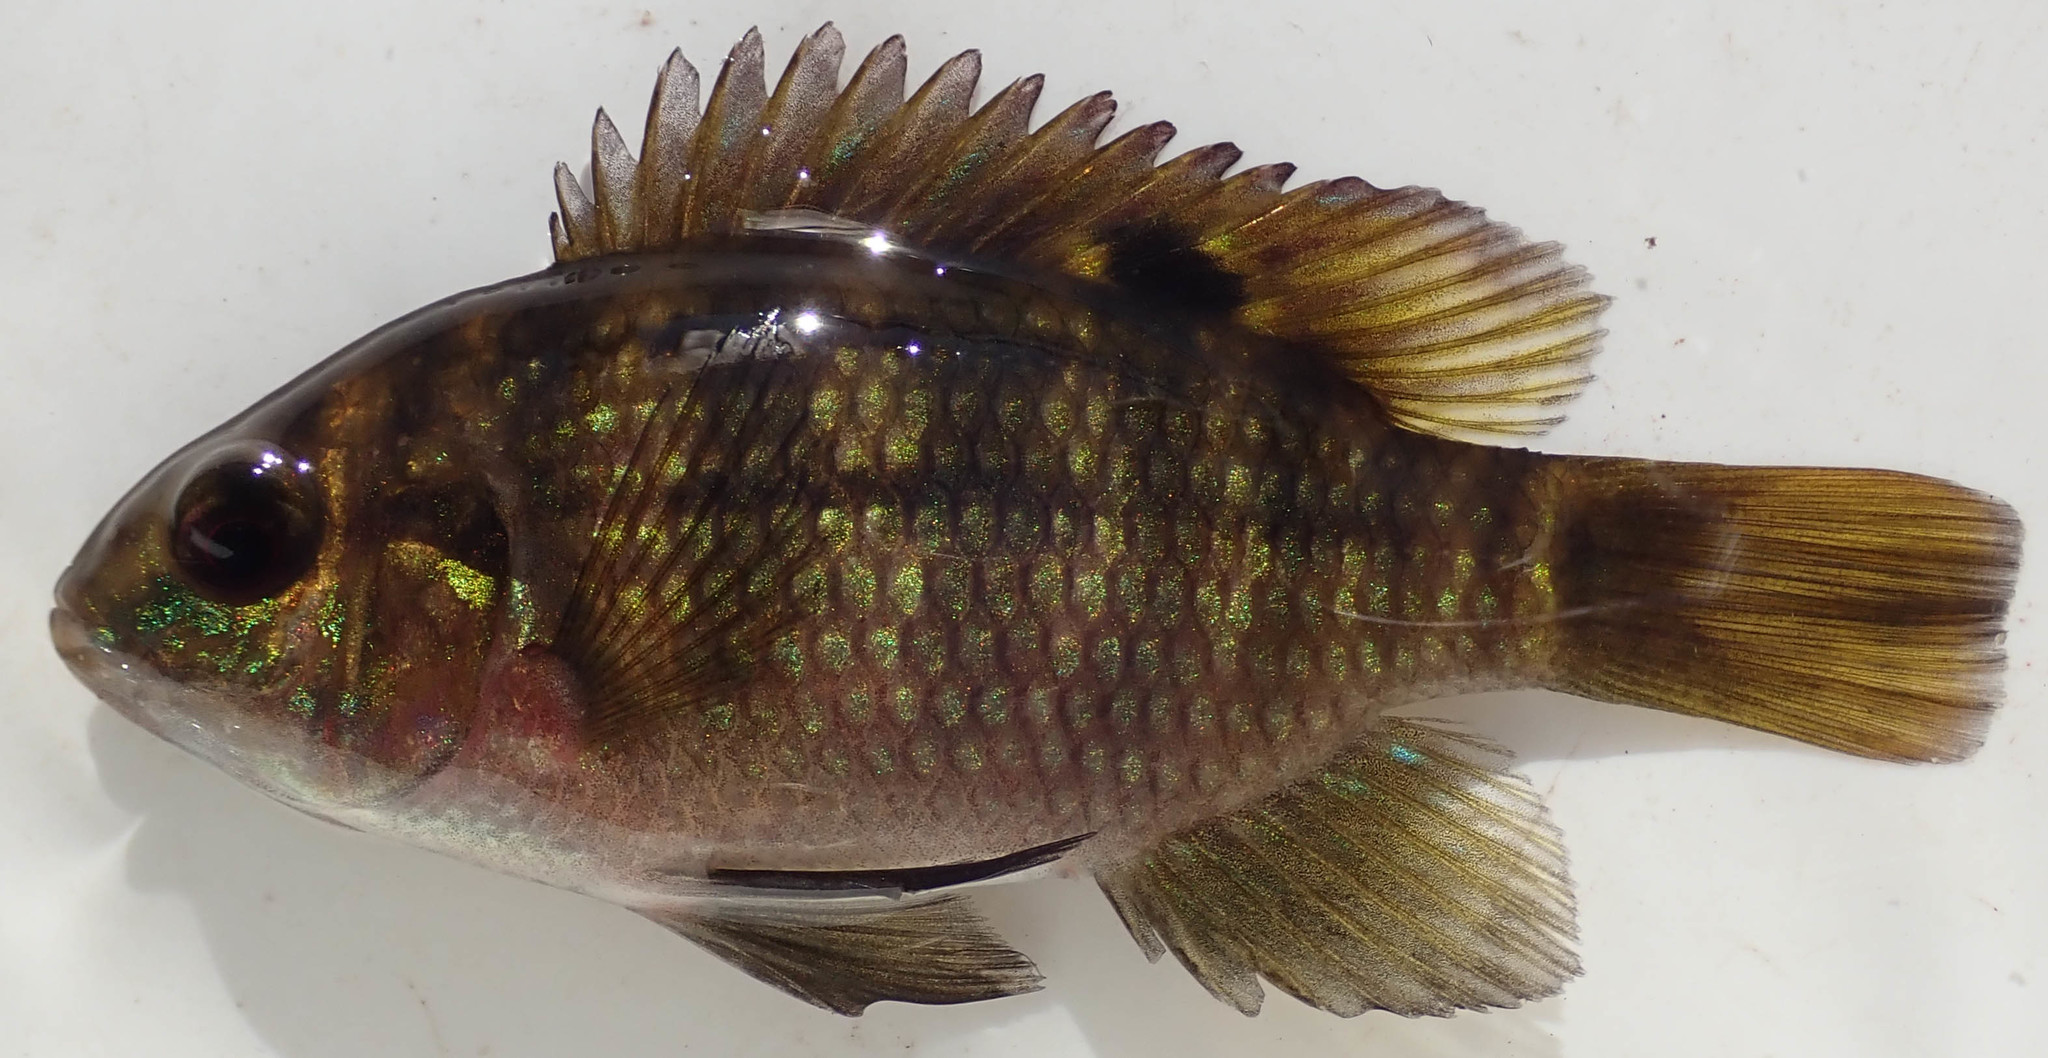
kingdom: Animalia
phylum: Chordata
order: Perciformes
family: Cichlidae
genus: Tilapia
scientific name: Tilapia sparrmanii
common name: Banded tilapia
